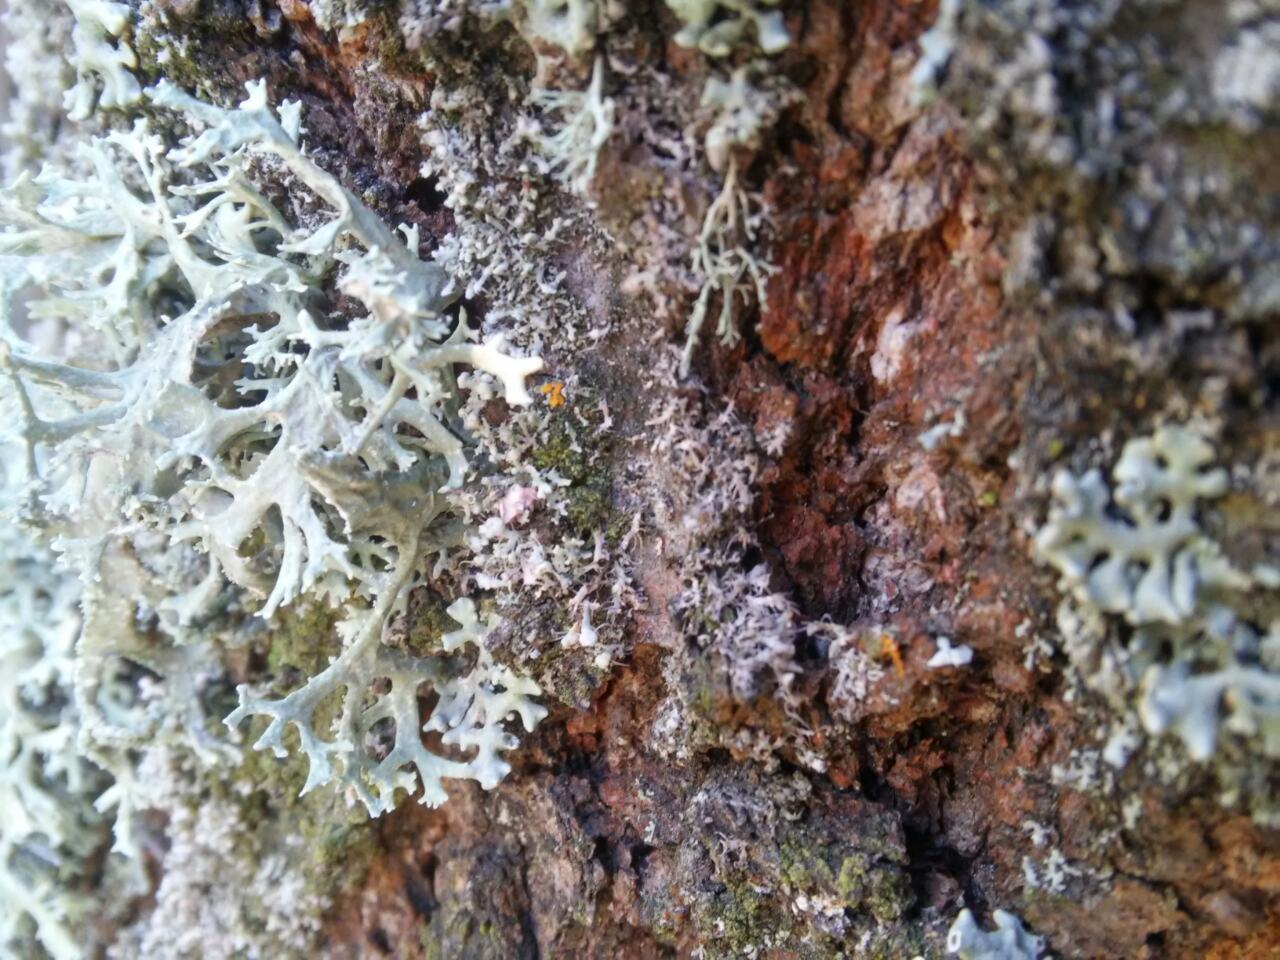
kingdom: Fungi
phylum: Ascomycota
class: Lecanoromycetes
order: Lecanorales
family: Parmeliaceae
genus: Evernia
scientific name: Evernia prunastri
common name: Oak moss
